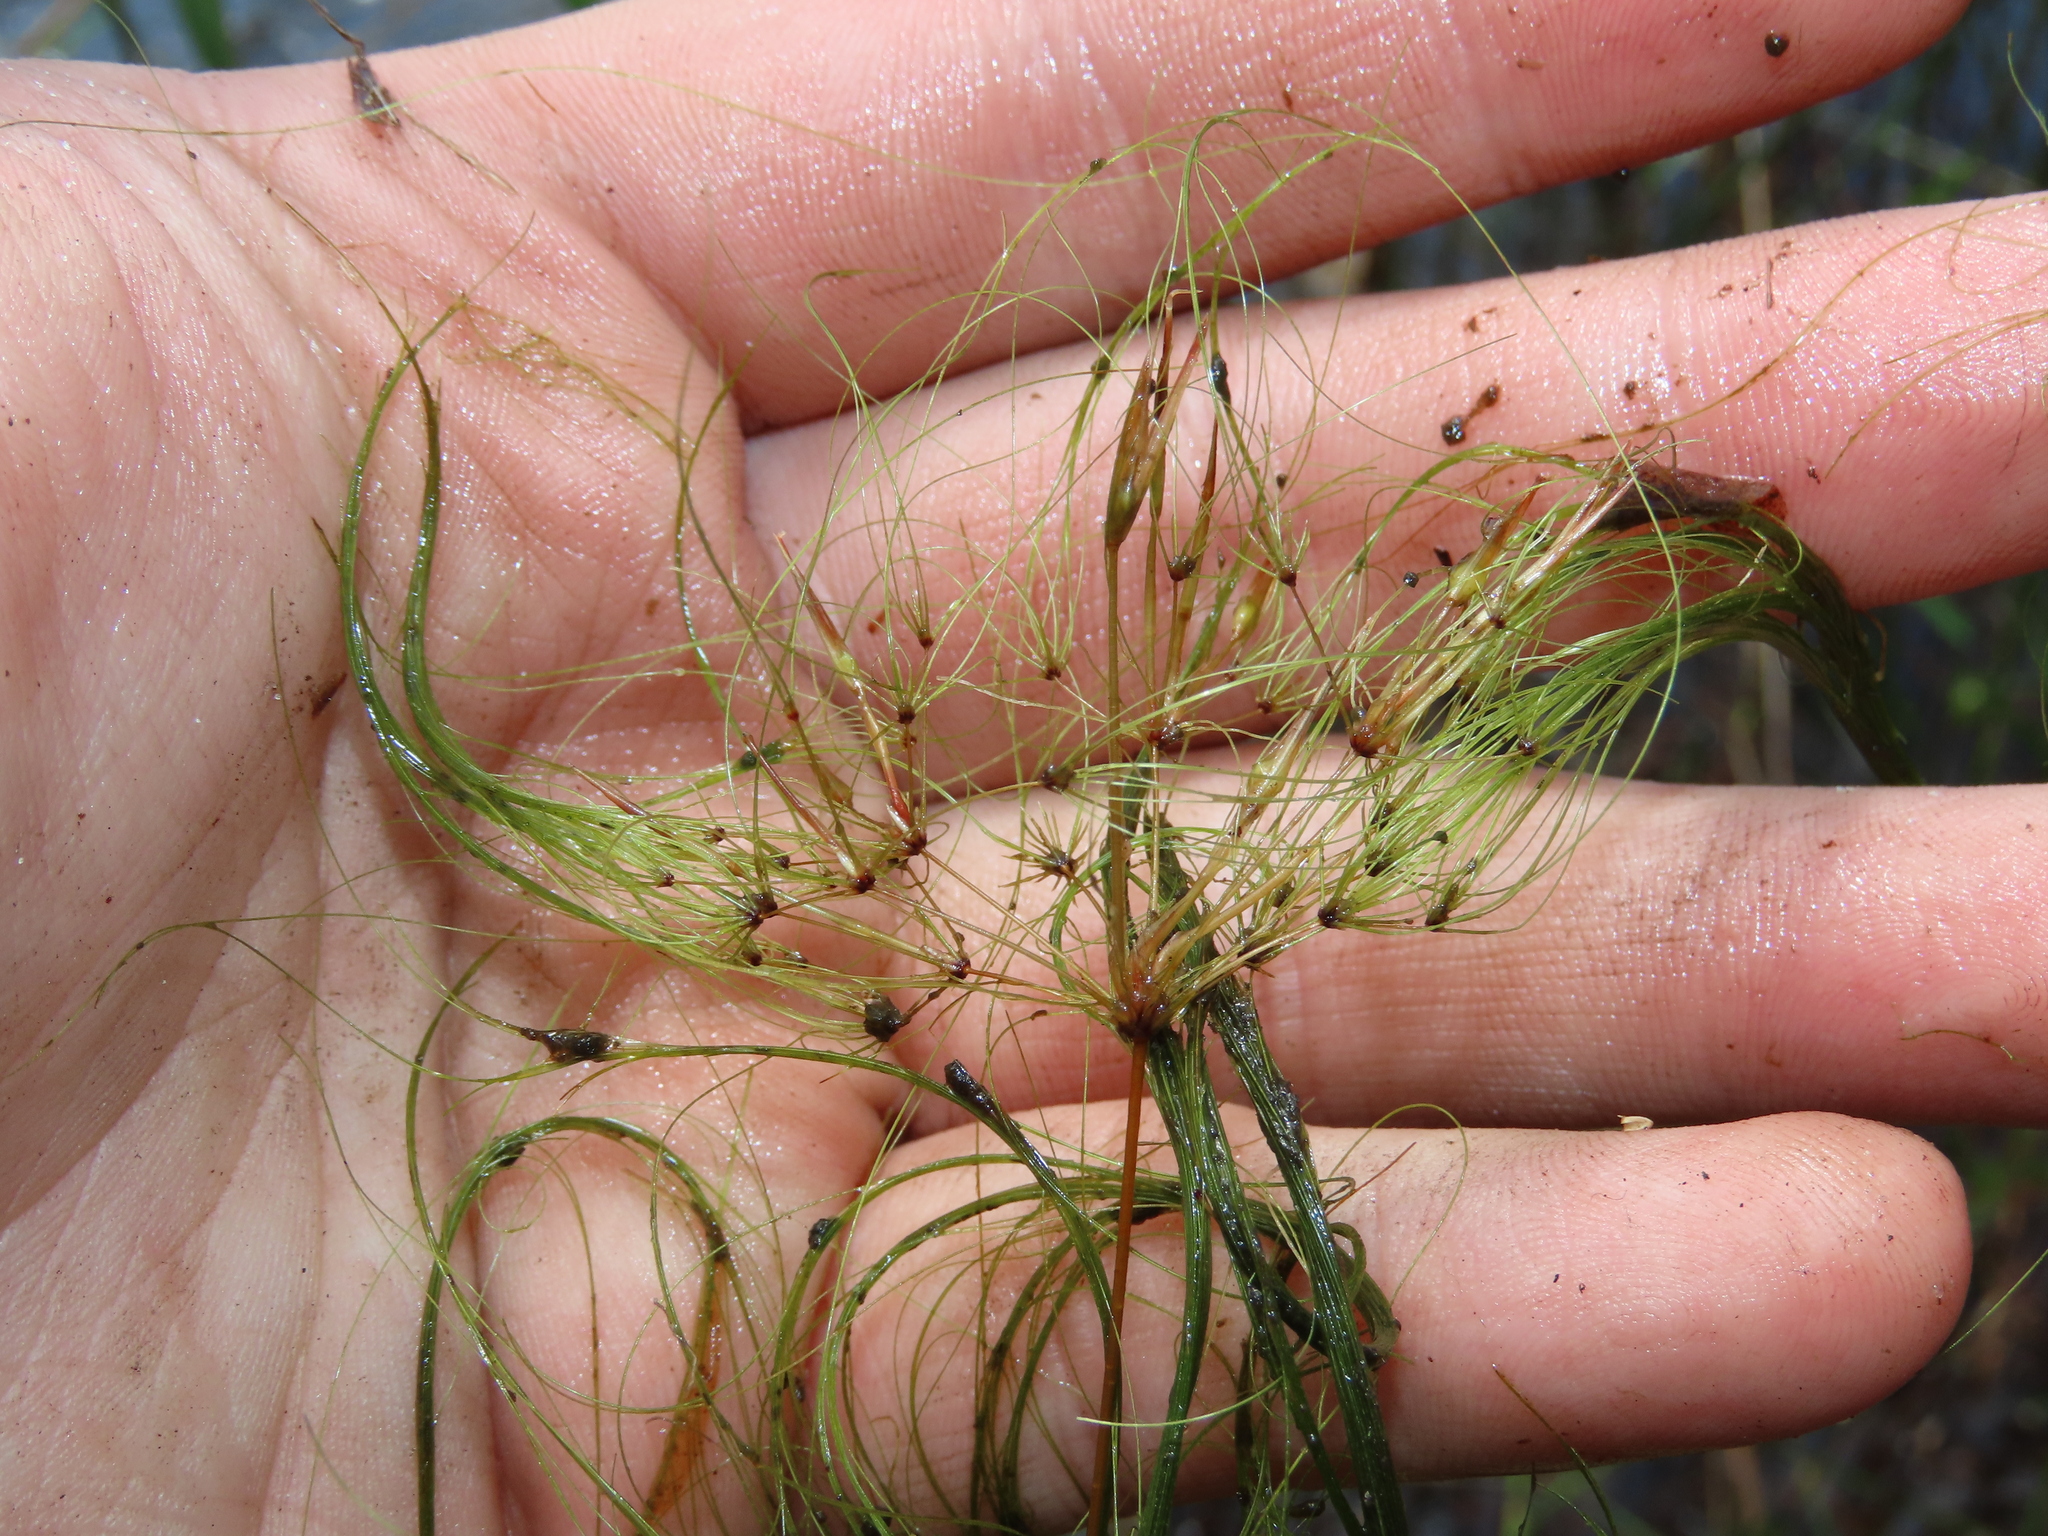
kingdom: Plantae
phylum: Tracheophyta
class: Liliopsida
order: Poales
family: Cyperaceae
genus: Eleocharis
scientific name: Eleocharis vivipara
